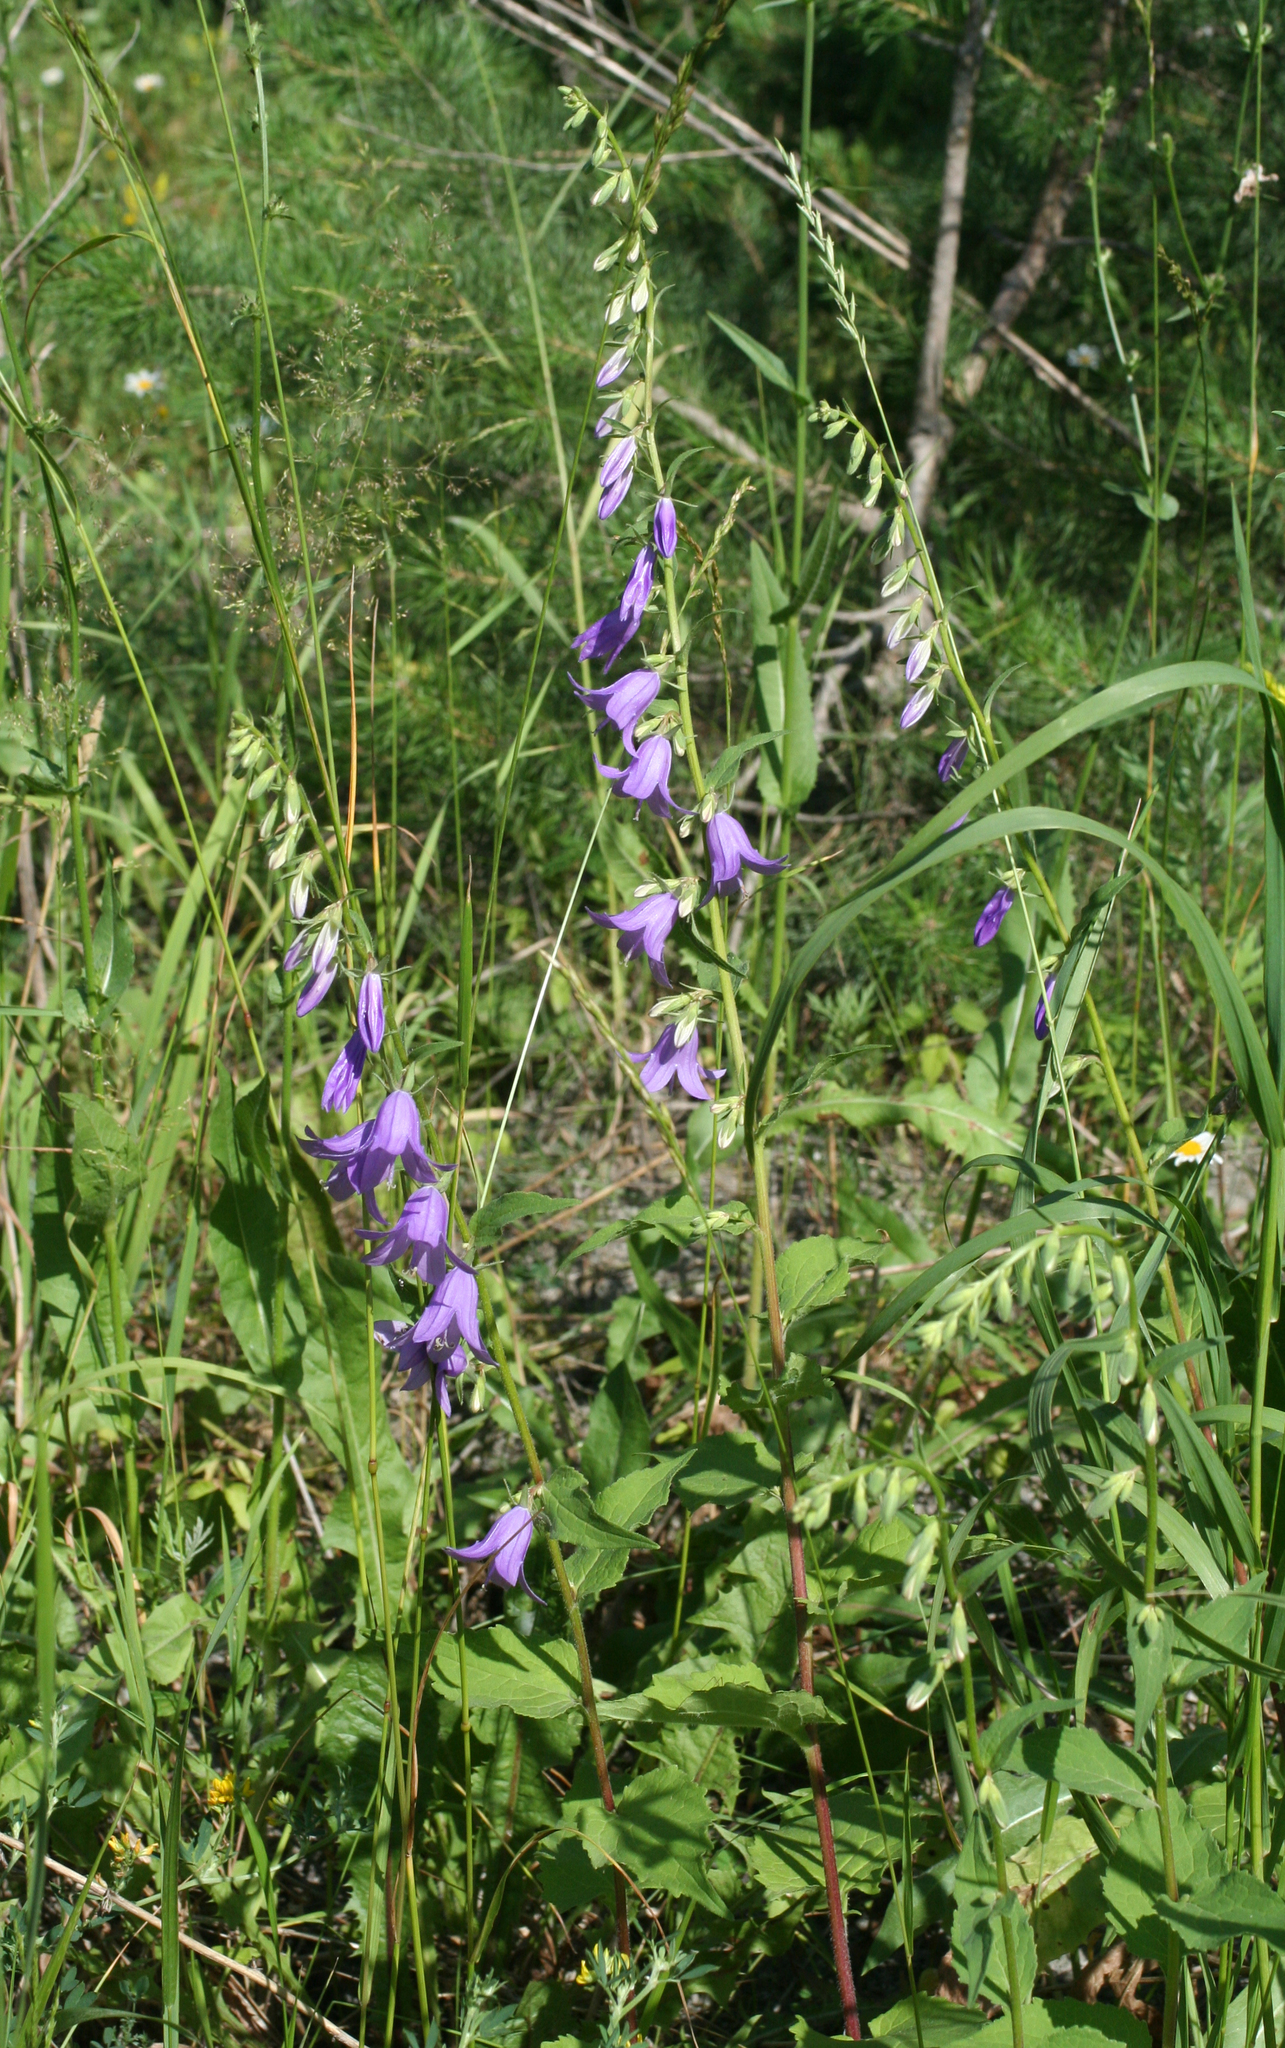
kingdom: Plantae
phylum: Tracheophyta
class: Magnoliopsida
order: Asterales
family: Campanulaceae
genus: Campanula
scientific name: Campanula rapunculoides
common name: Creeping bellflower
